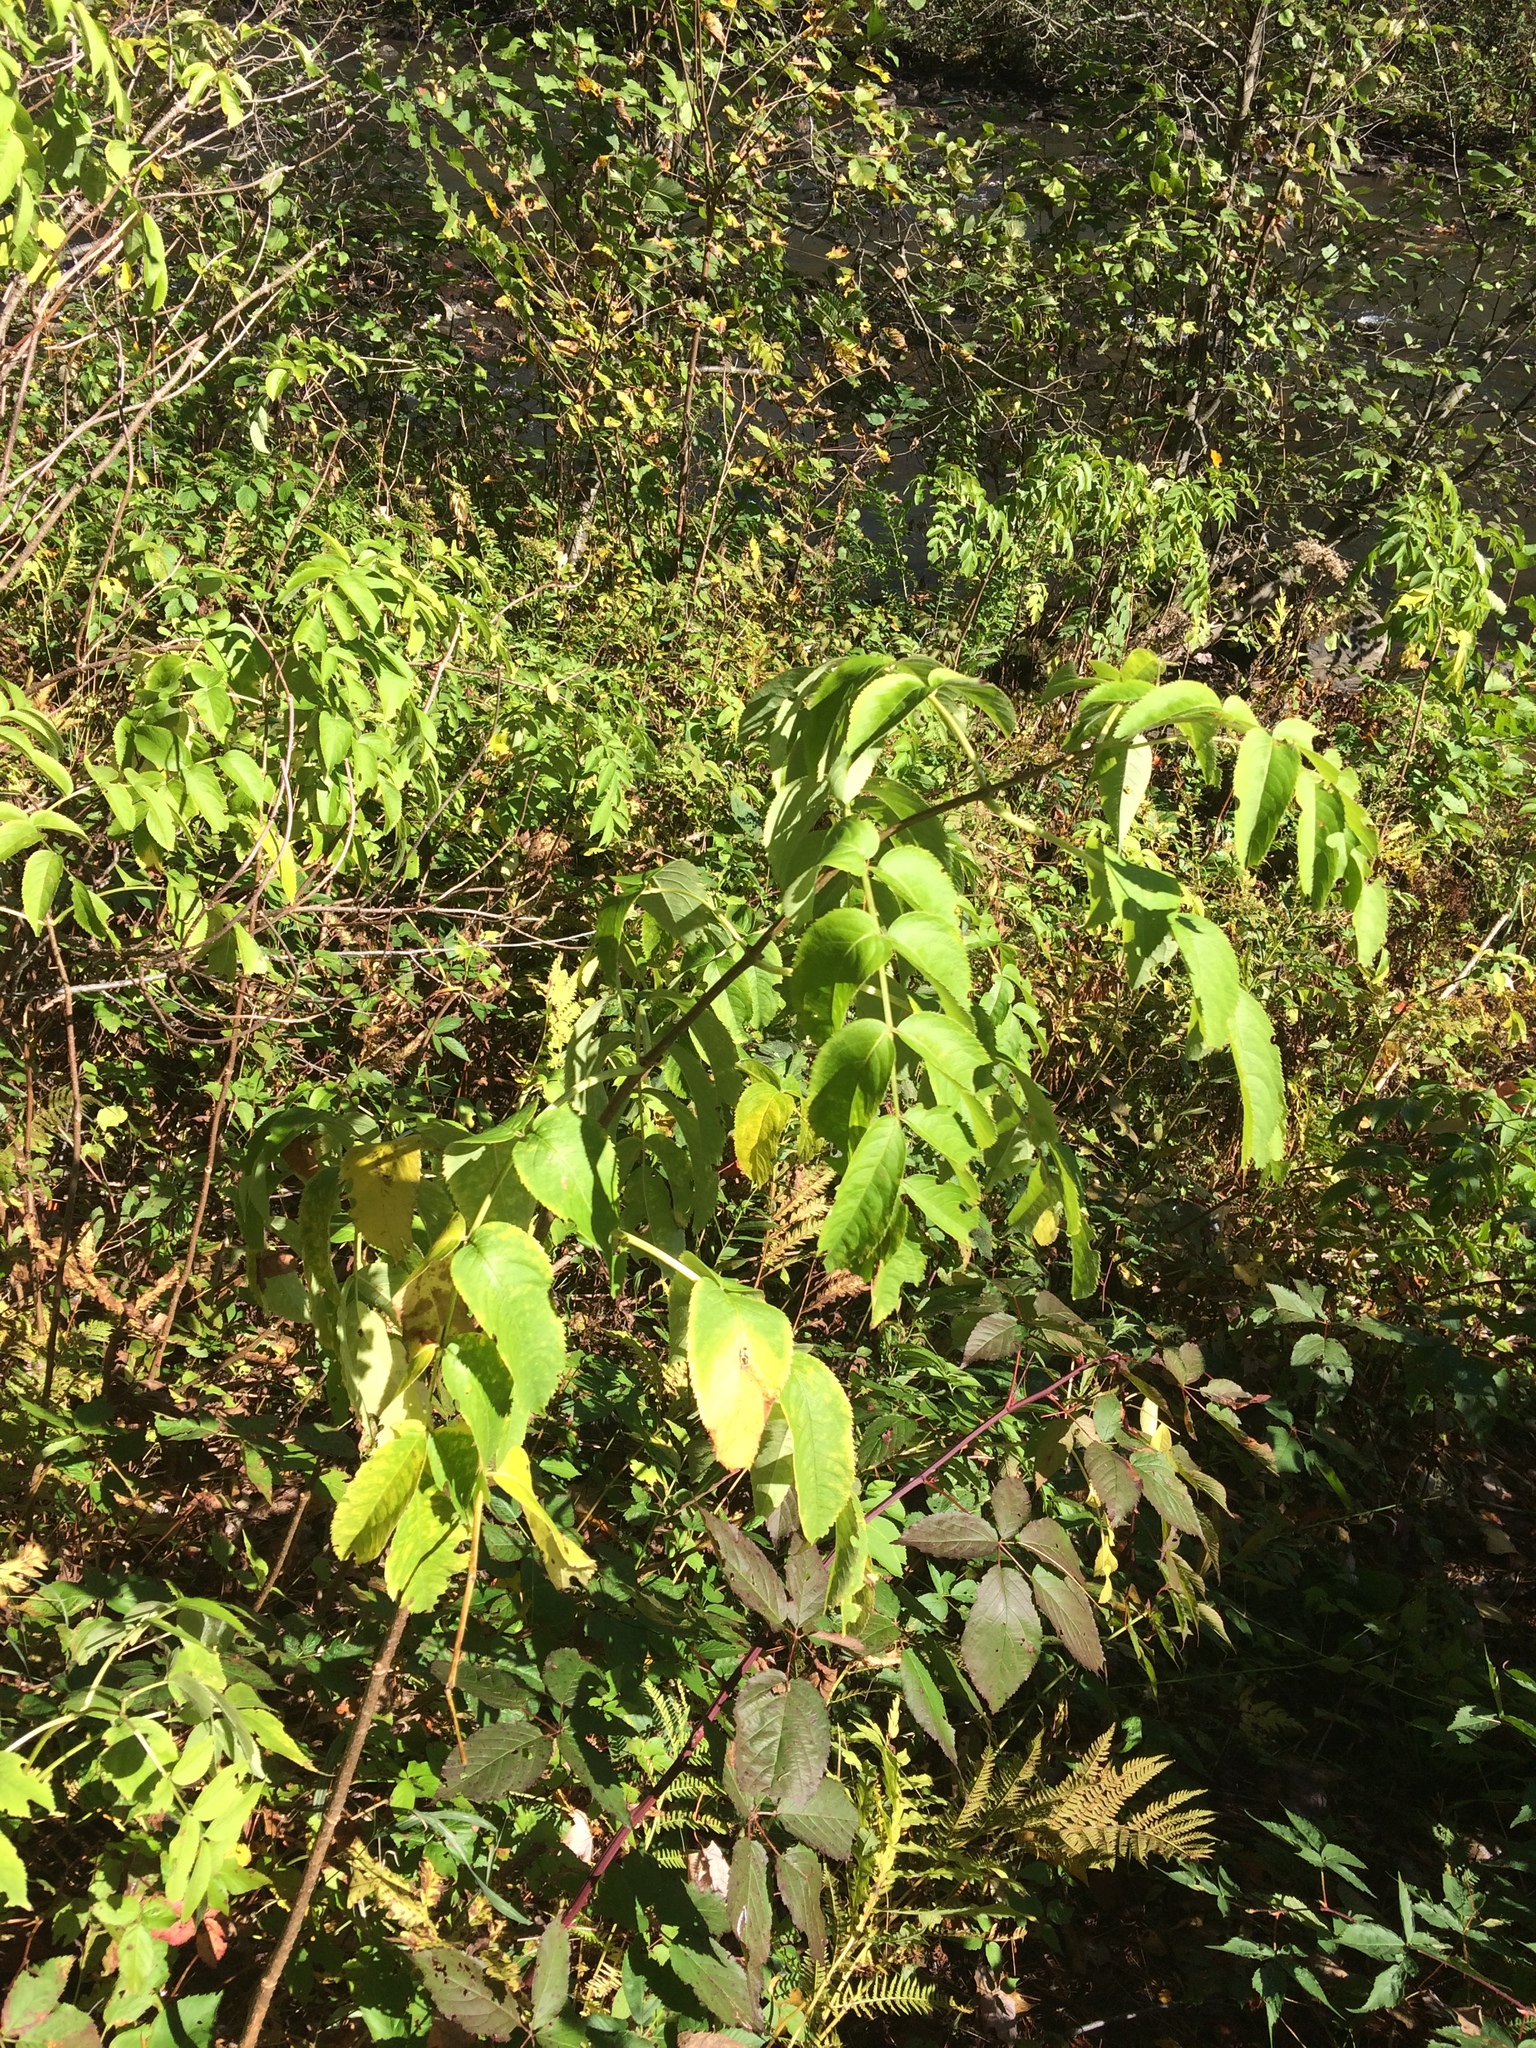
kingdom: Plantae
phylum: Tracheophyta
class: Magnoliopsida
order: Dipsacales
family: Viburnaceae
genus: Sambucus
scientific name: Sambucus racemosa
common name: Red-berried elder
